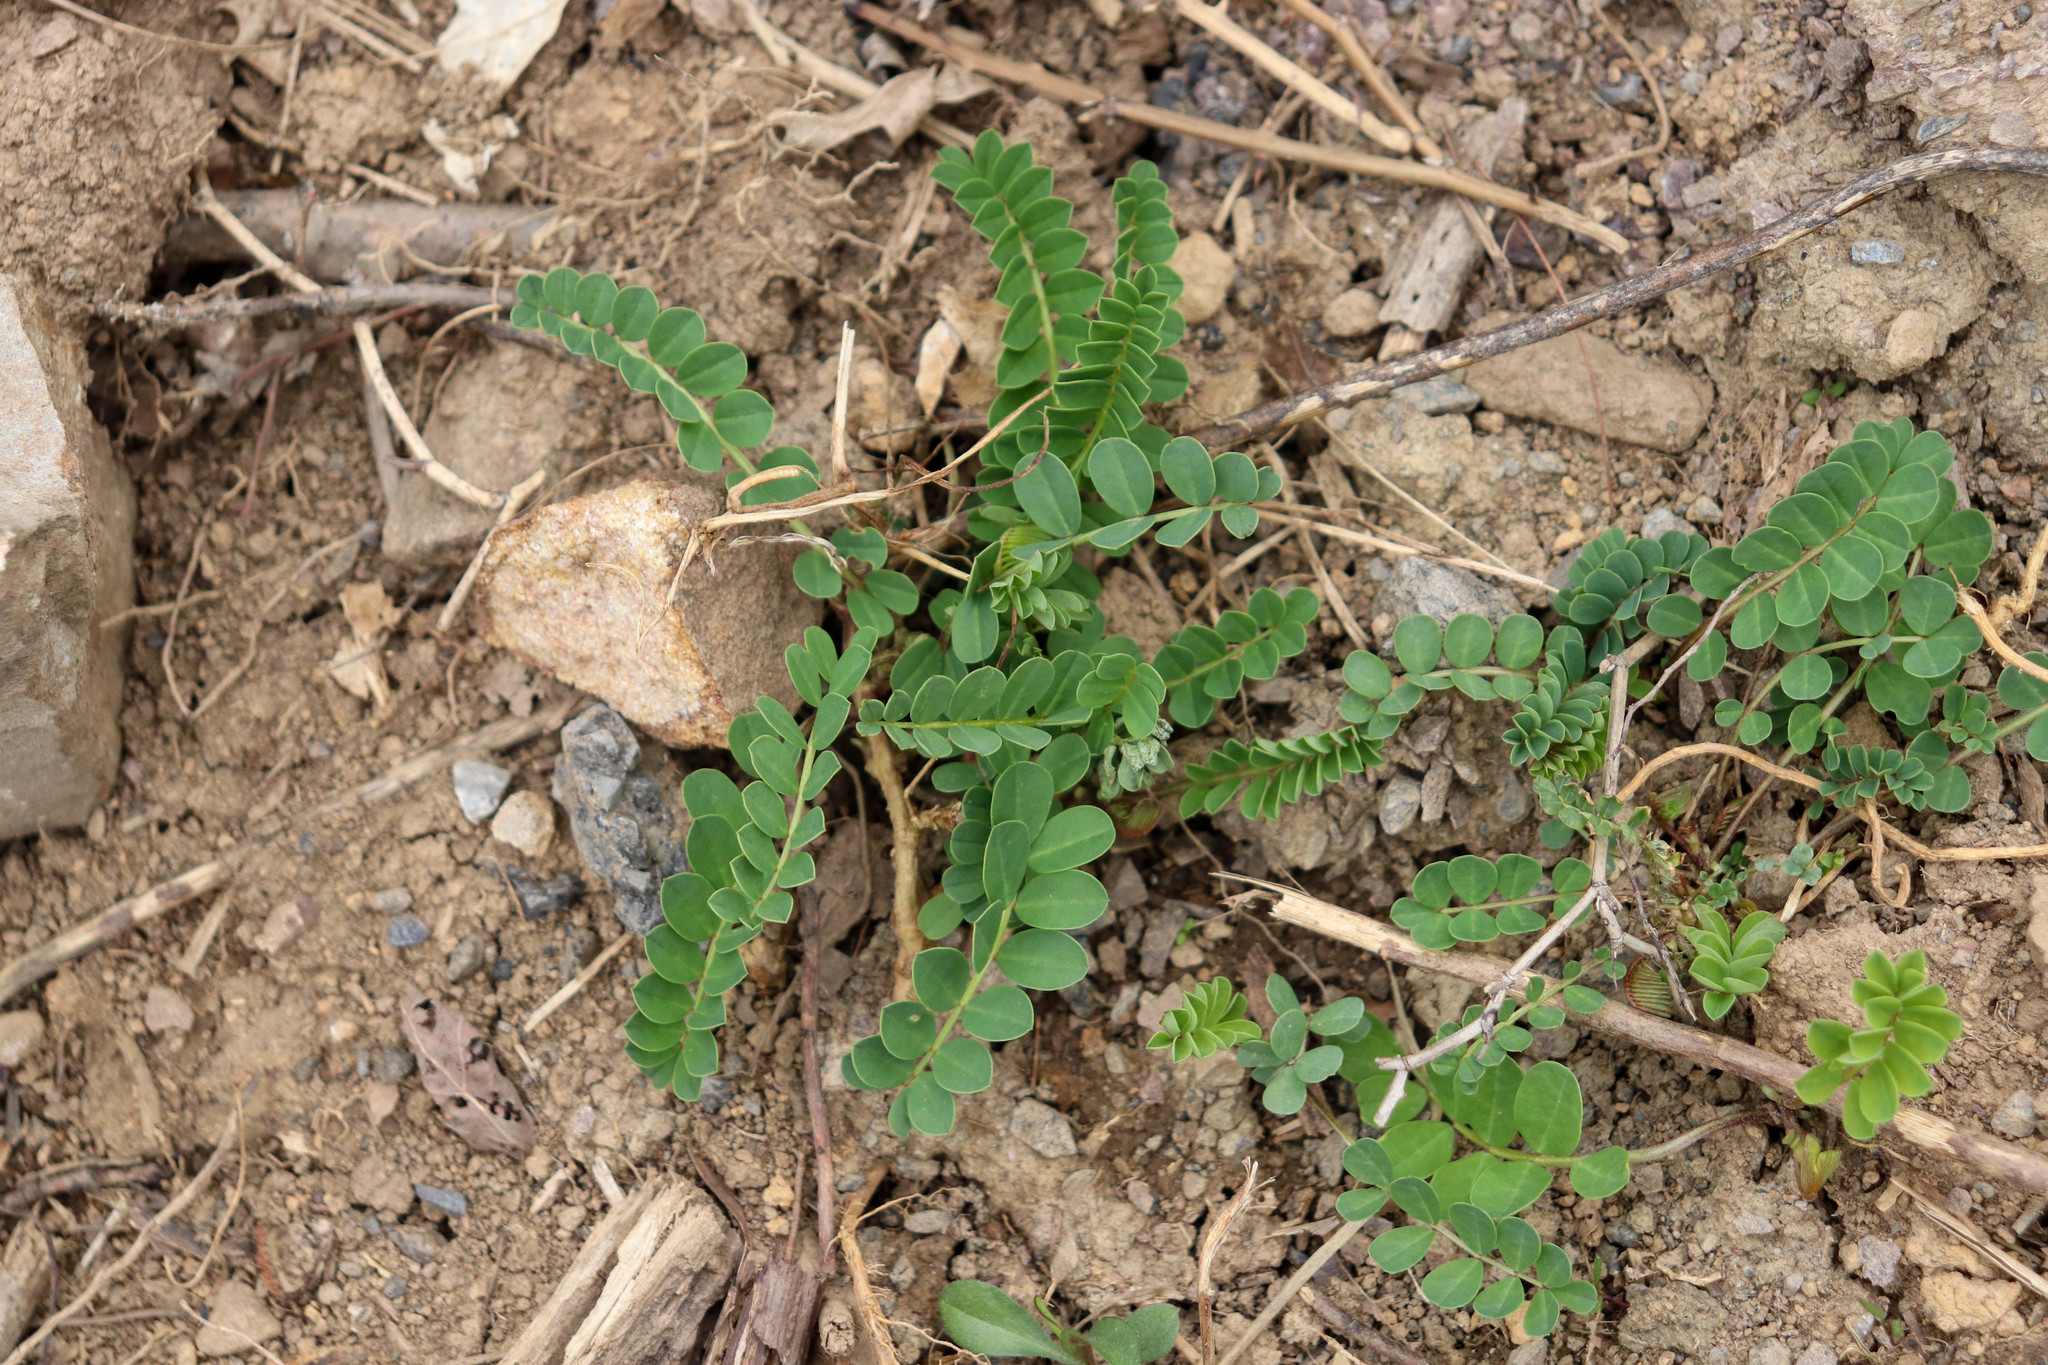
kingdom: Plantae
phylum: Tracheophyta
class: Magnoliopsida
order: Fabales
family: Fabaceae
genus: Coronilla
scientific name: Coronilla varia
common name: Crownvetch
